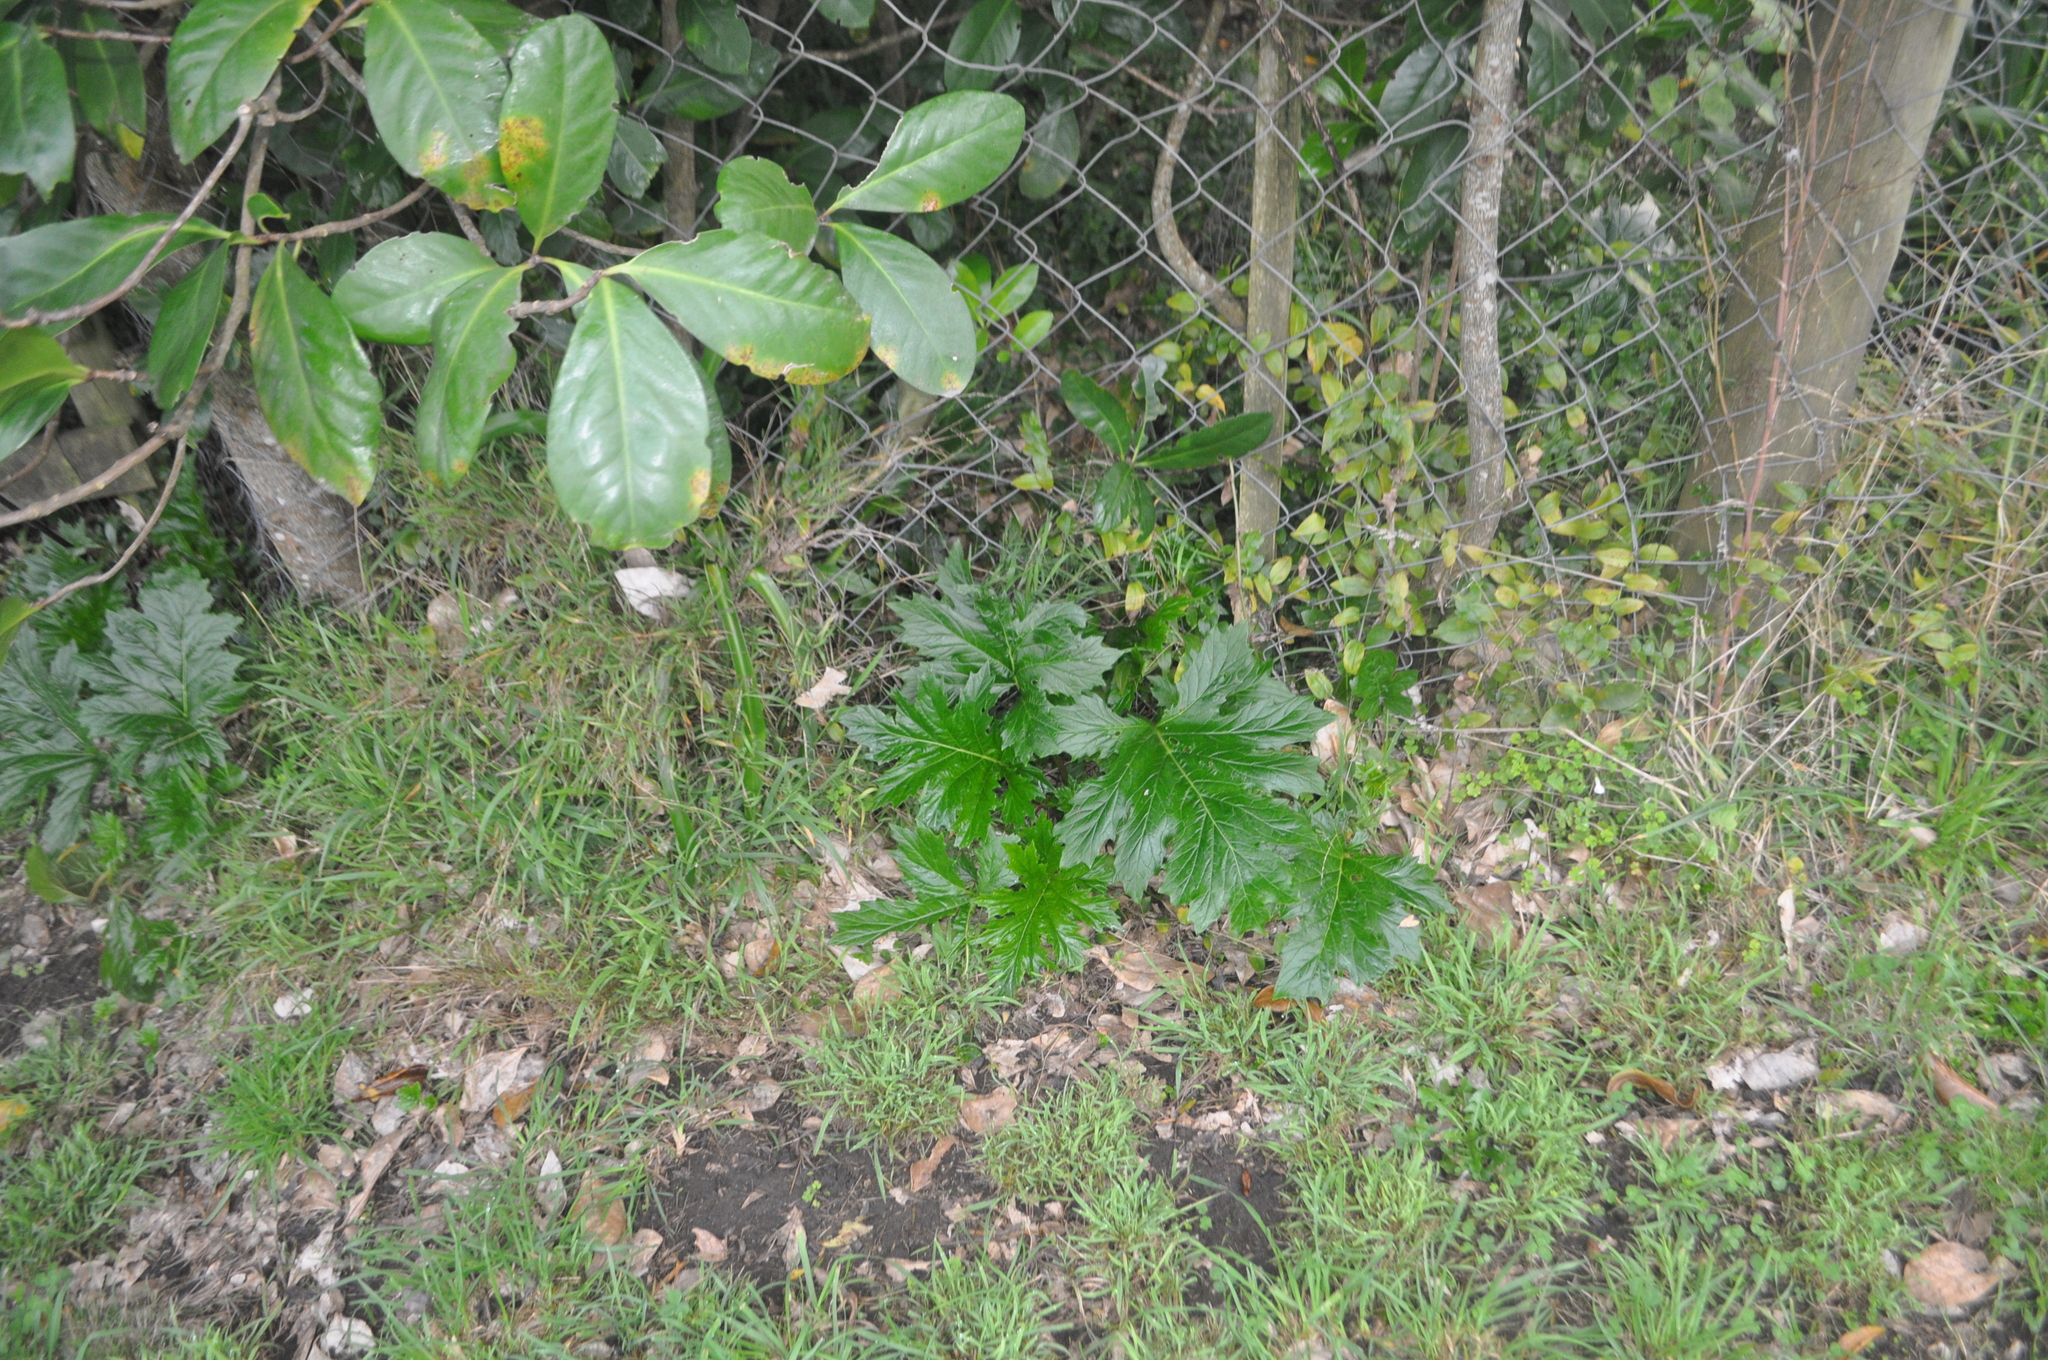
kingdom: Plantae
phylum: Tracheophyta
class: Magnoliopsida
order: Lamiales
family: Acanthaceae
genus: Acanthus
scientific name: Acanthus mollis
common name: Bear's-breech
